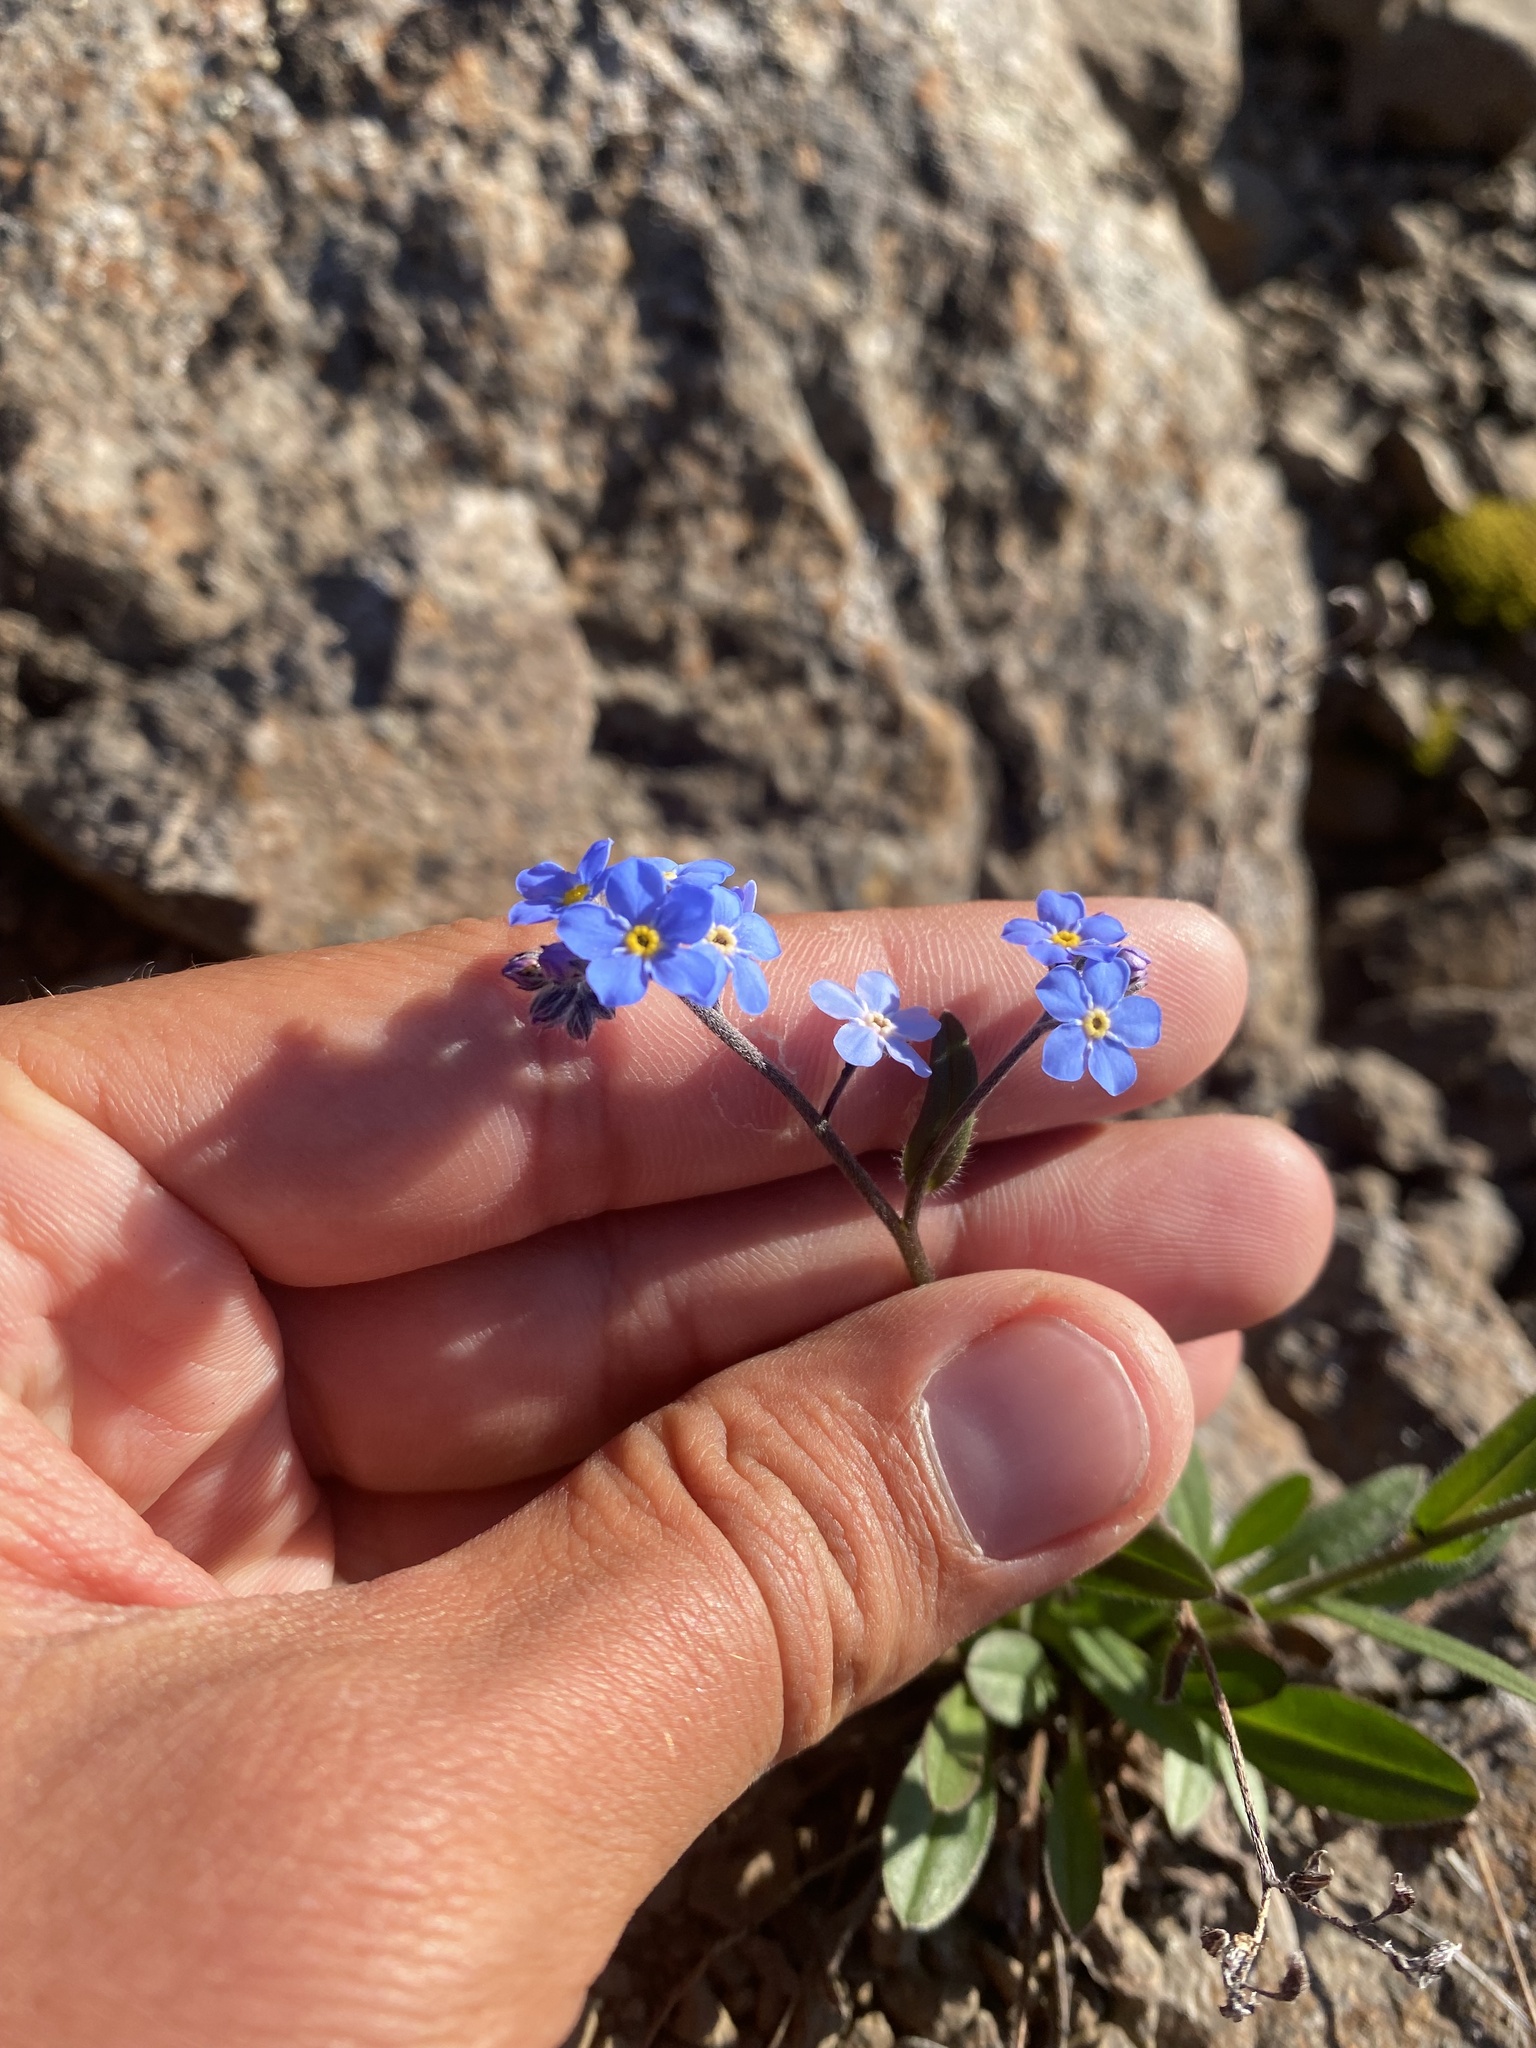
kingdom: Plantae
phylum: Tracheophyta
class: Magnoliopsida
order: Boraginales
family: Boraginaceae
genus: Myosotis
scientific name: Myosotis asiatica
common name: Asian forget-me-not
